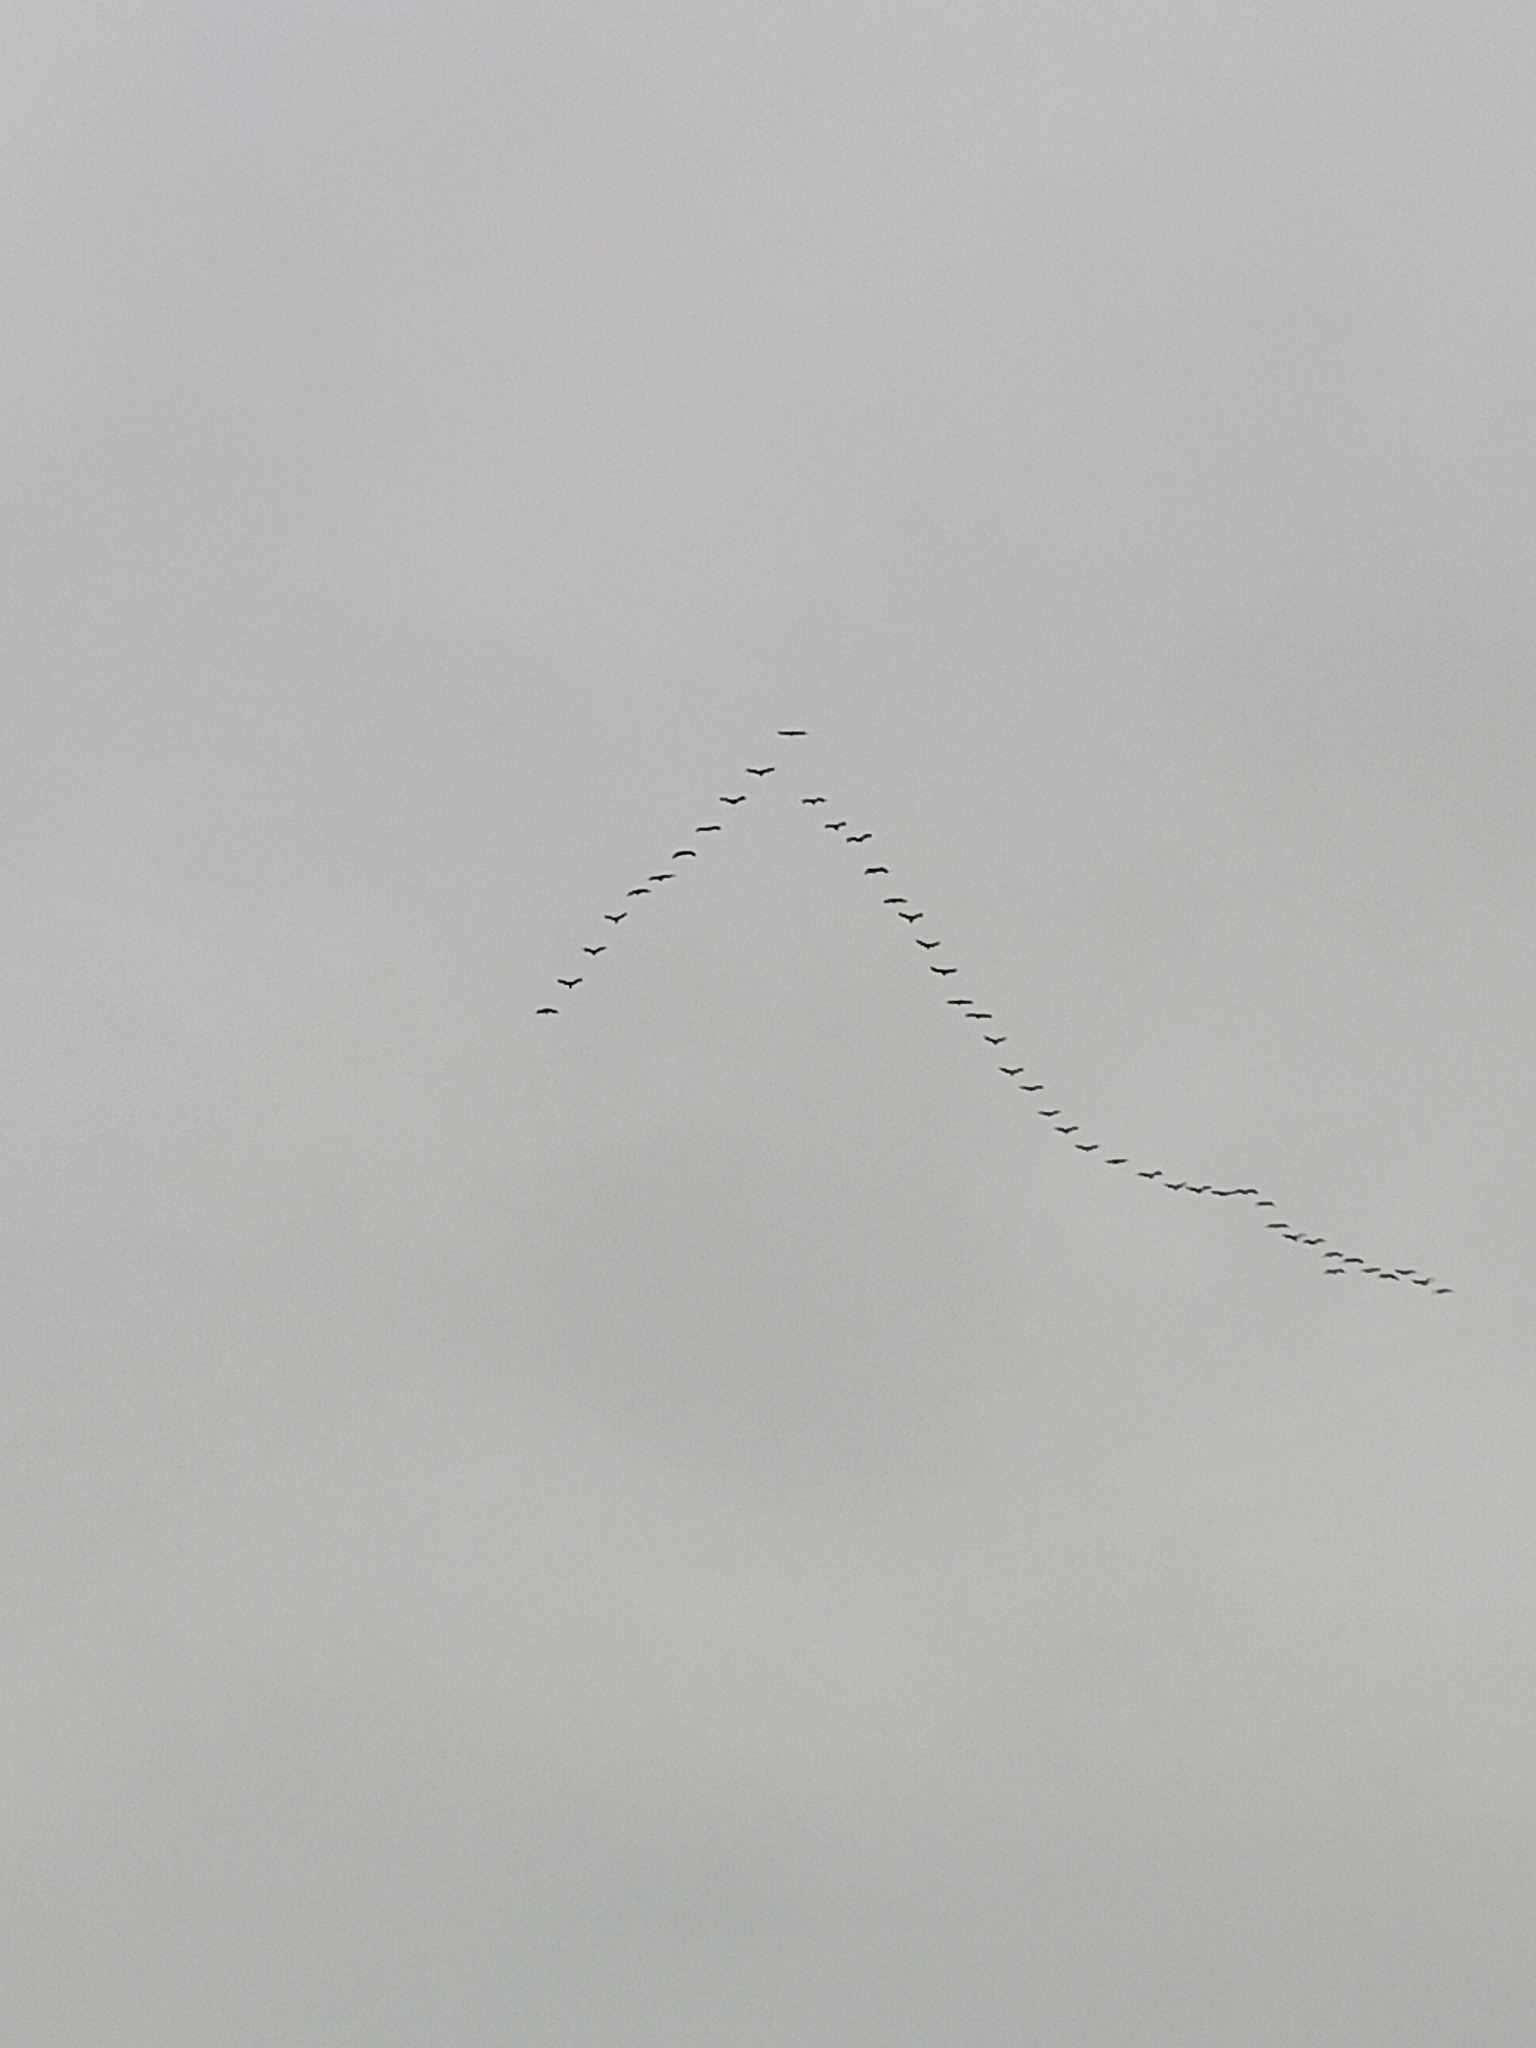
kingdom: Animalia
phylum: Chordata
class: Aves
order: Gruiformes
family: Gruidae
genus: Grus
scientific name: Grus grus
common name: Common crane
